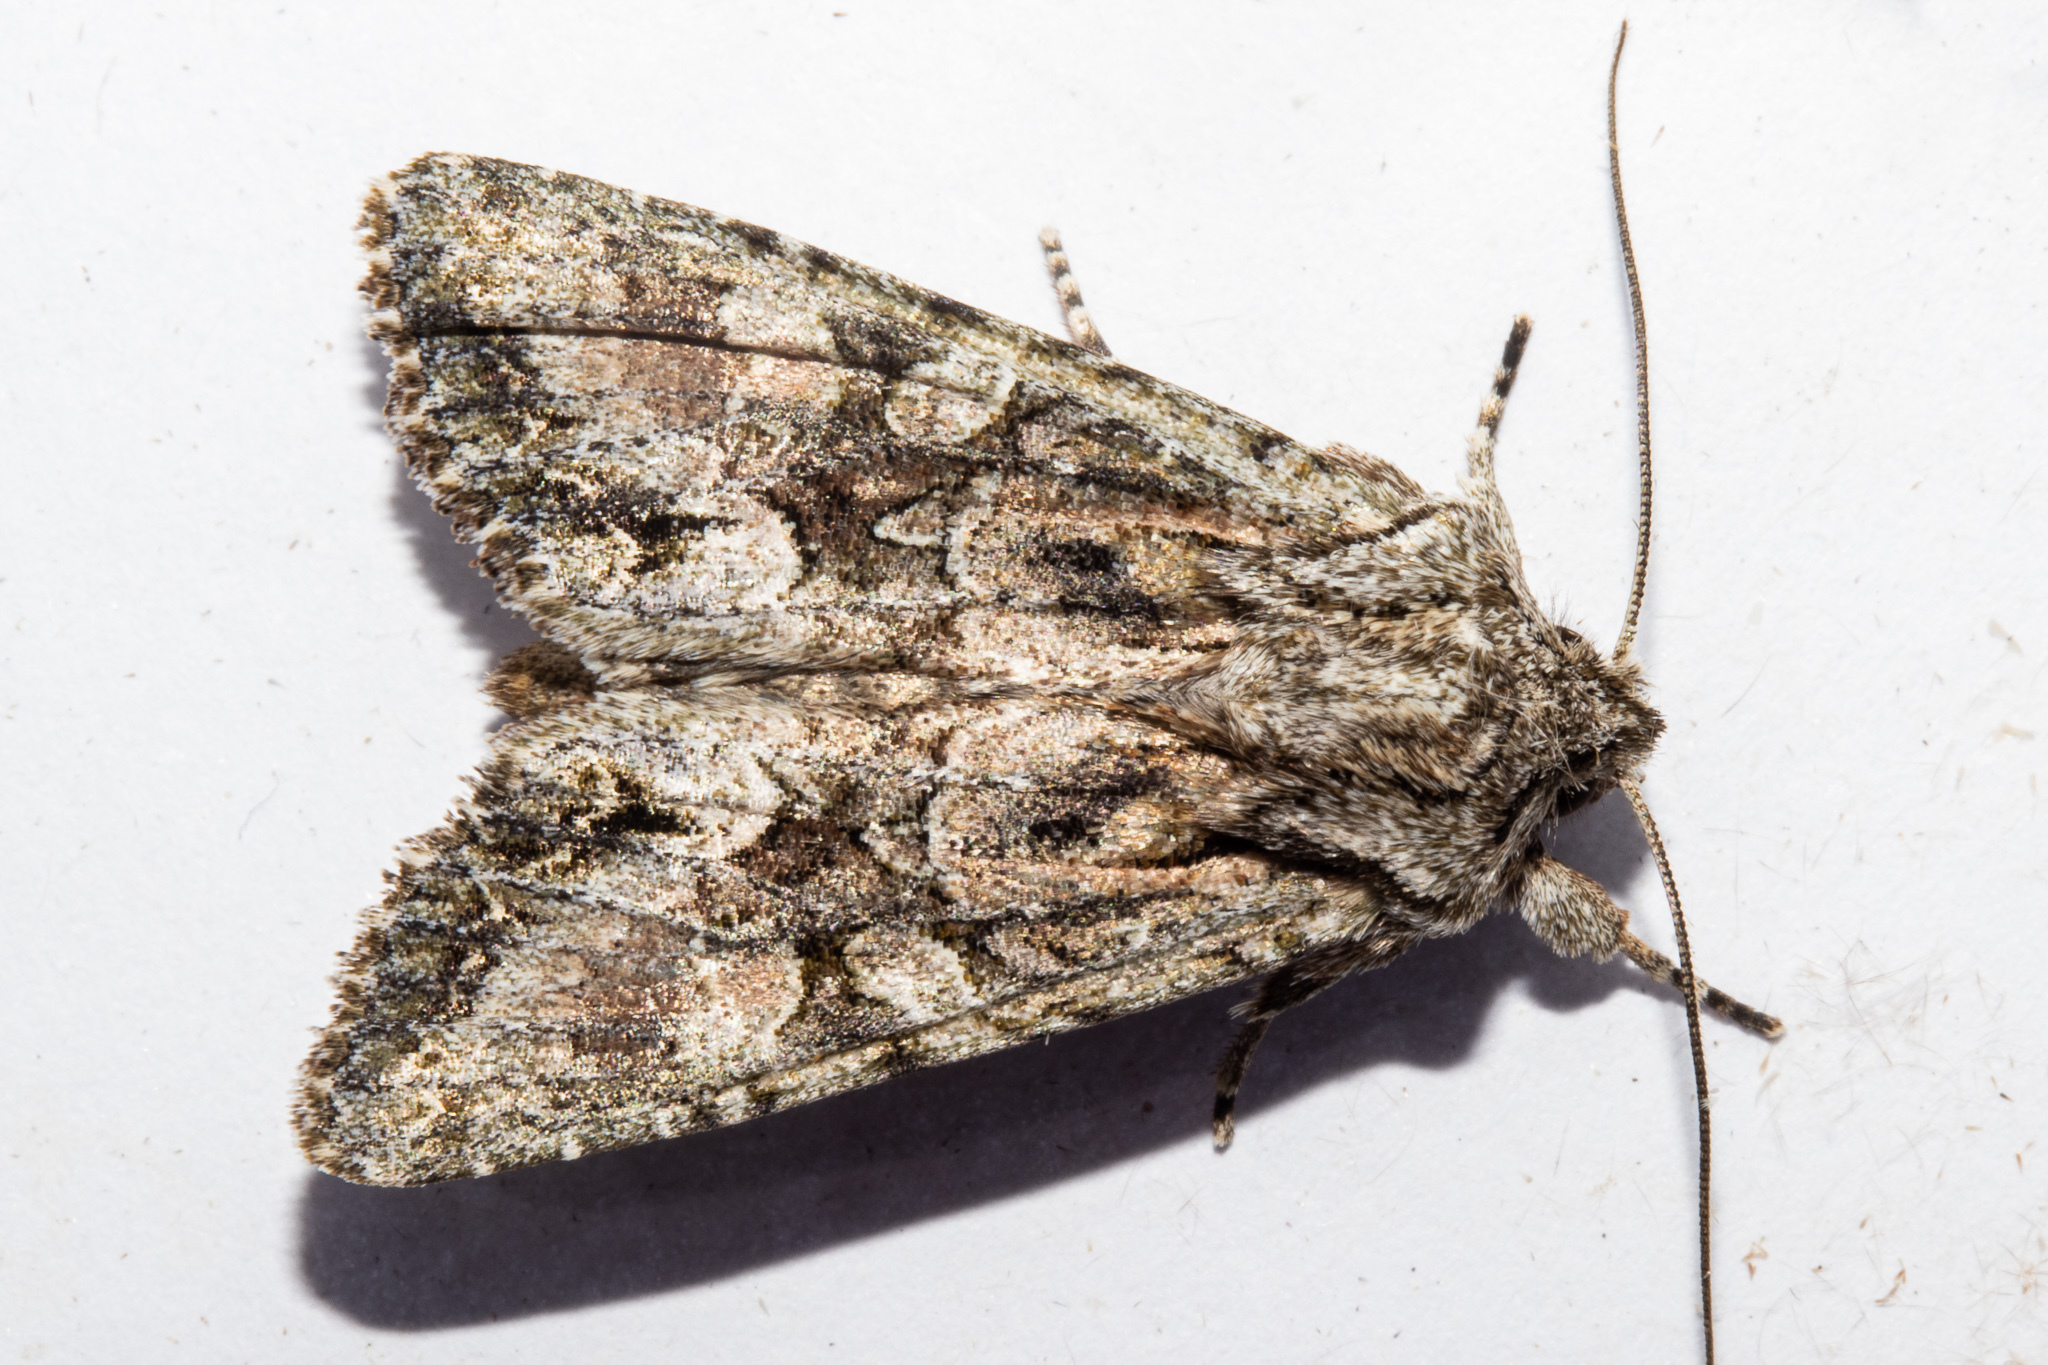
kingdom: Animalia
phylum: Arthropoda
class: Insecta
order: Lepidoptera
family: Noctuidae
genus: Ichneutica
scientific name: Ichneutica mutans
